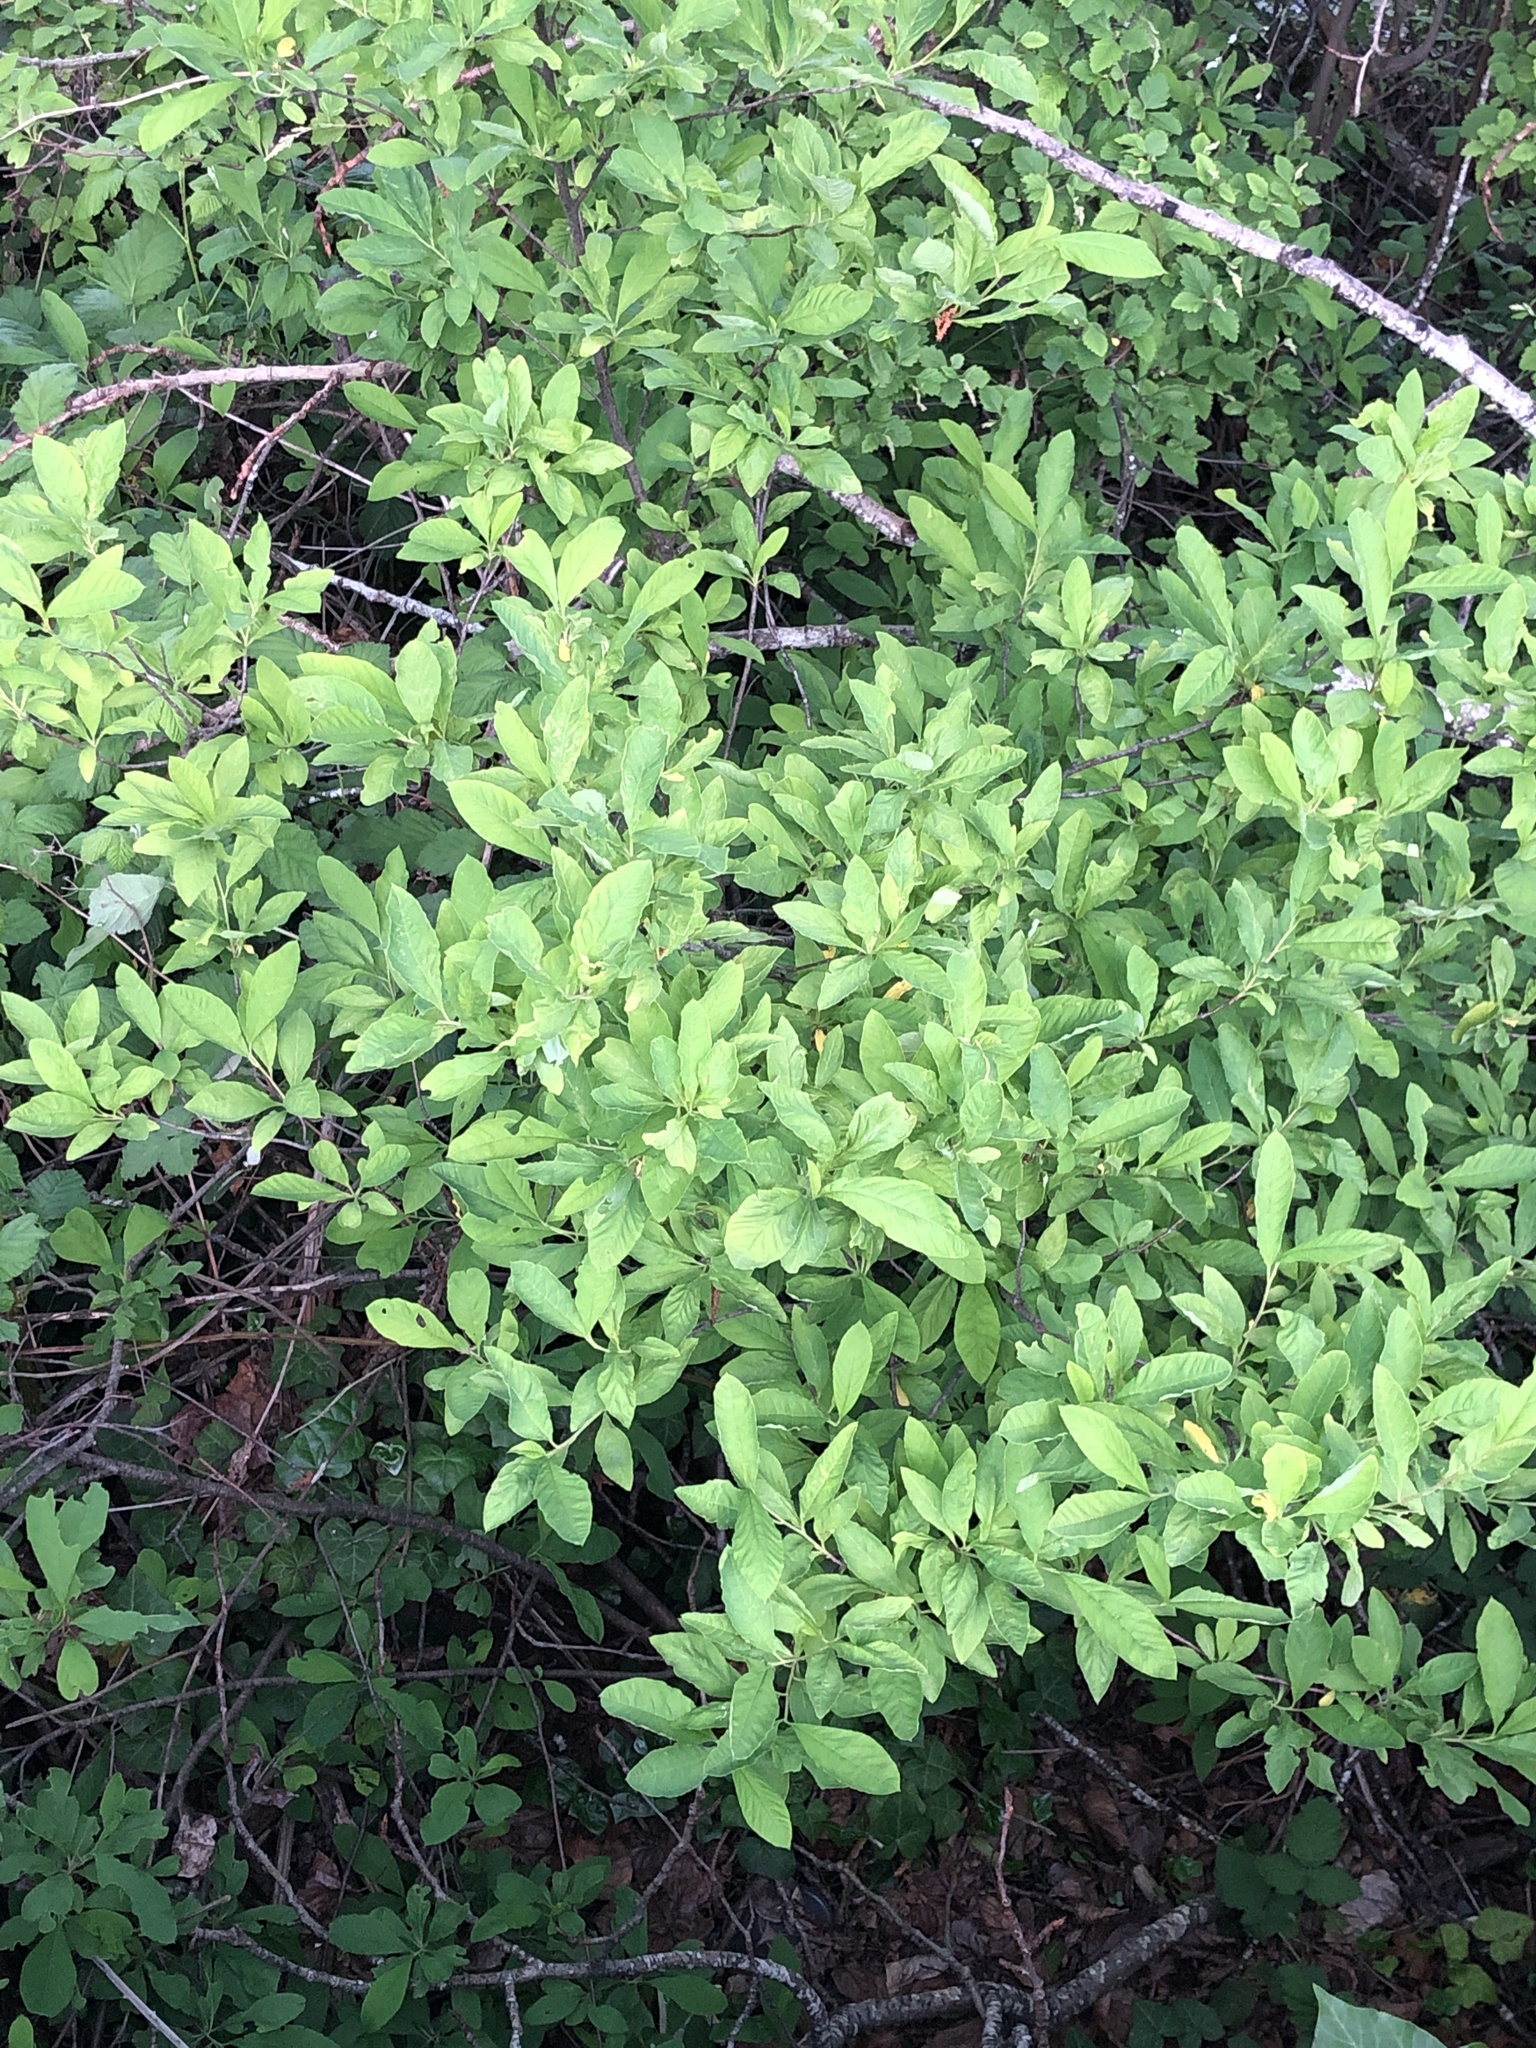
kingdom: Plantae
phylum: Tracheophyta
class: Magnoliopsida
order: Rosales
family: Rosaceae
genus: Oemleria
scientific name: Oemleria cerasiformis
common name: Osoberry
